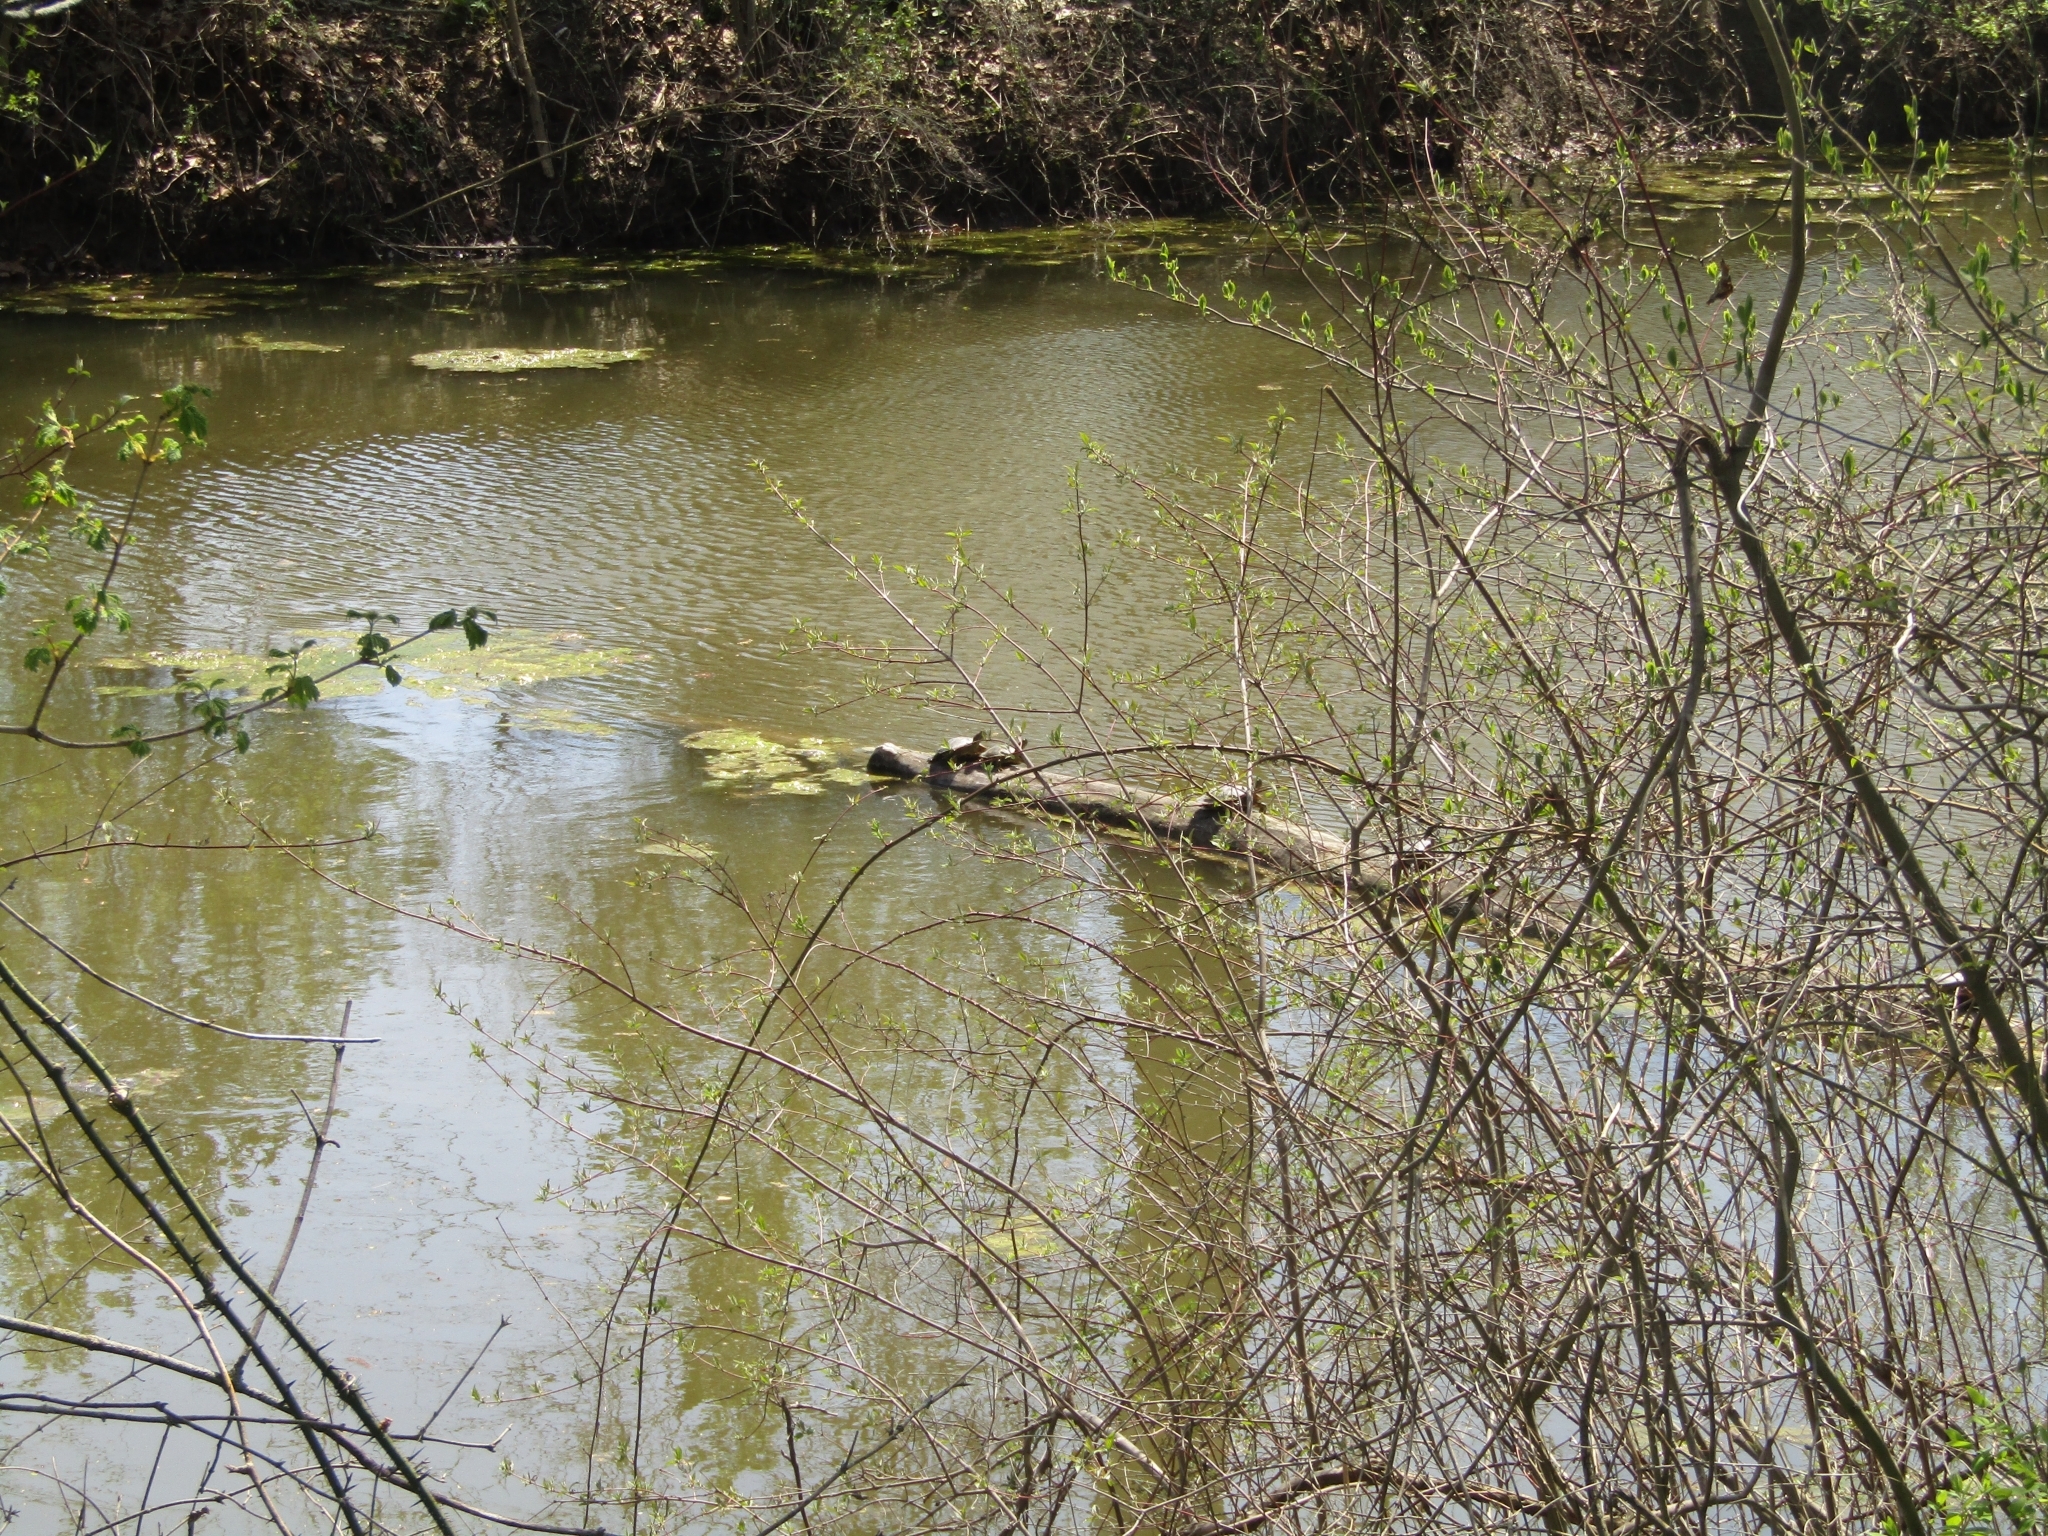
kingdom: Animalia
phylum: Chordata
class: Testudines
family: Emydidae
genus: Trachemys
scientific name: Trachemys scripta
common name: Slider
